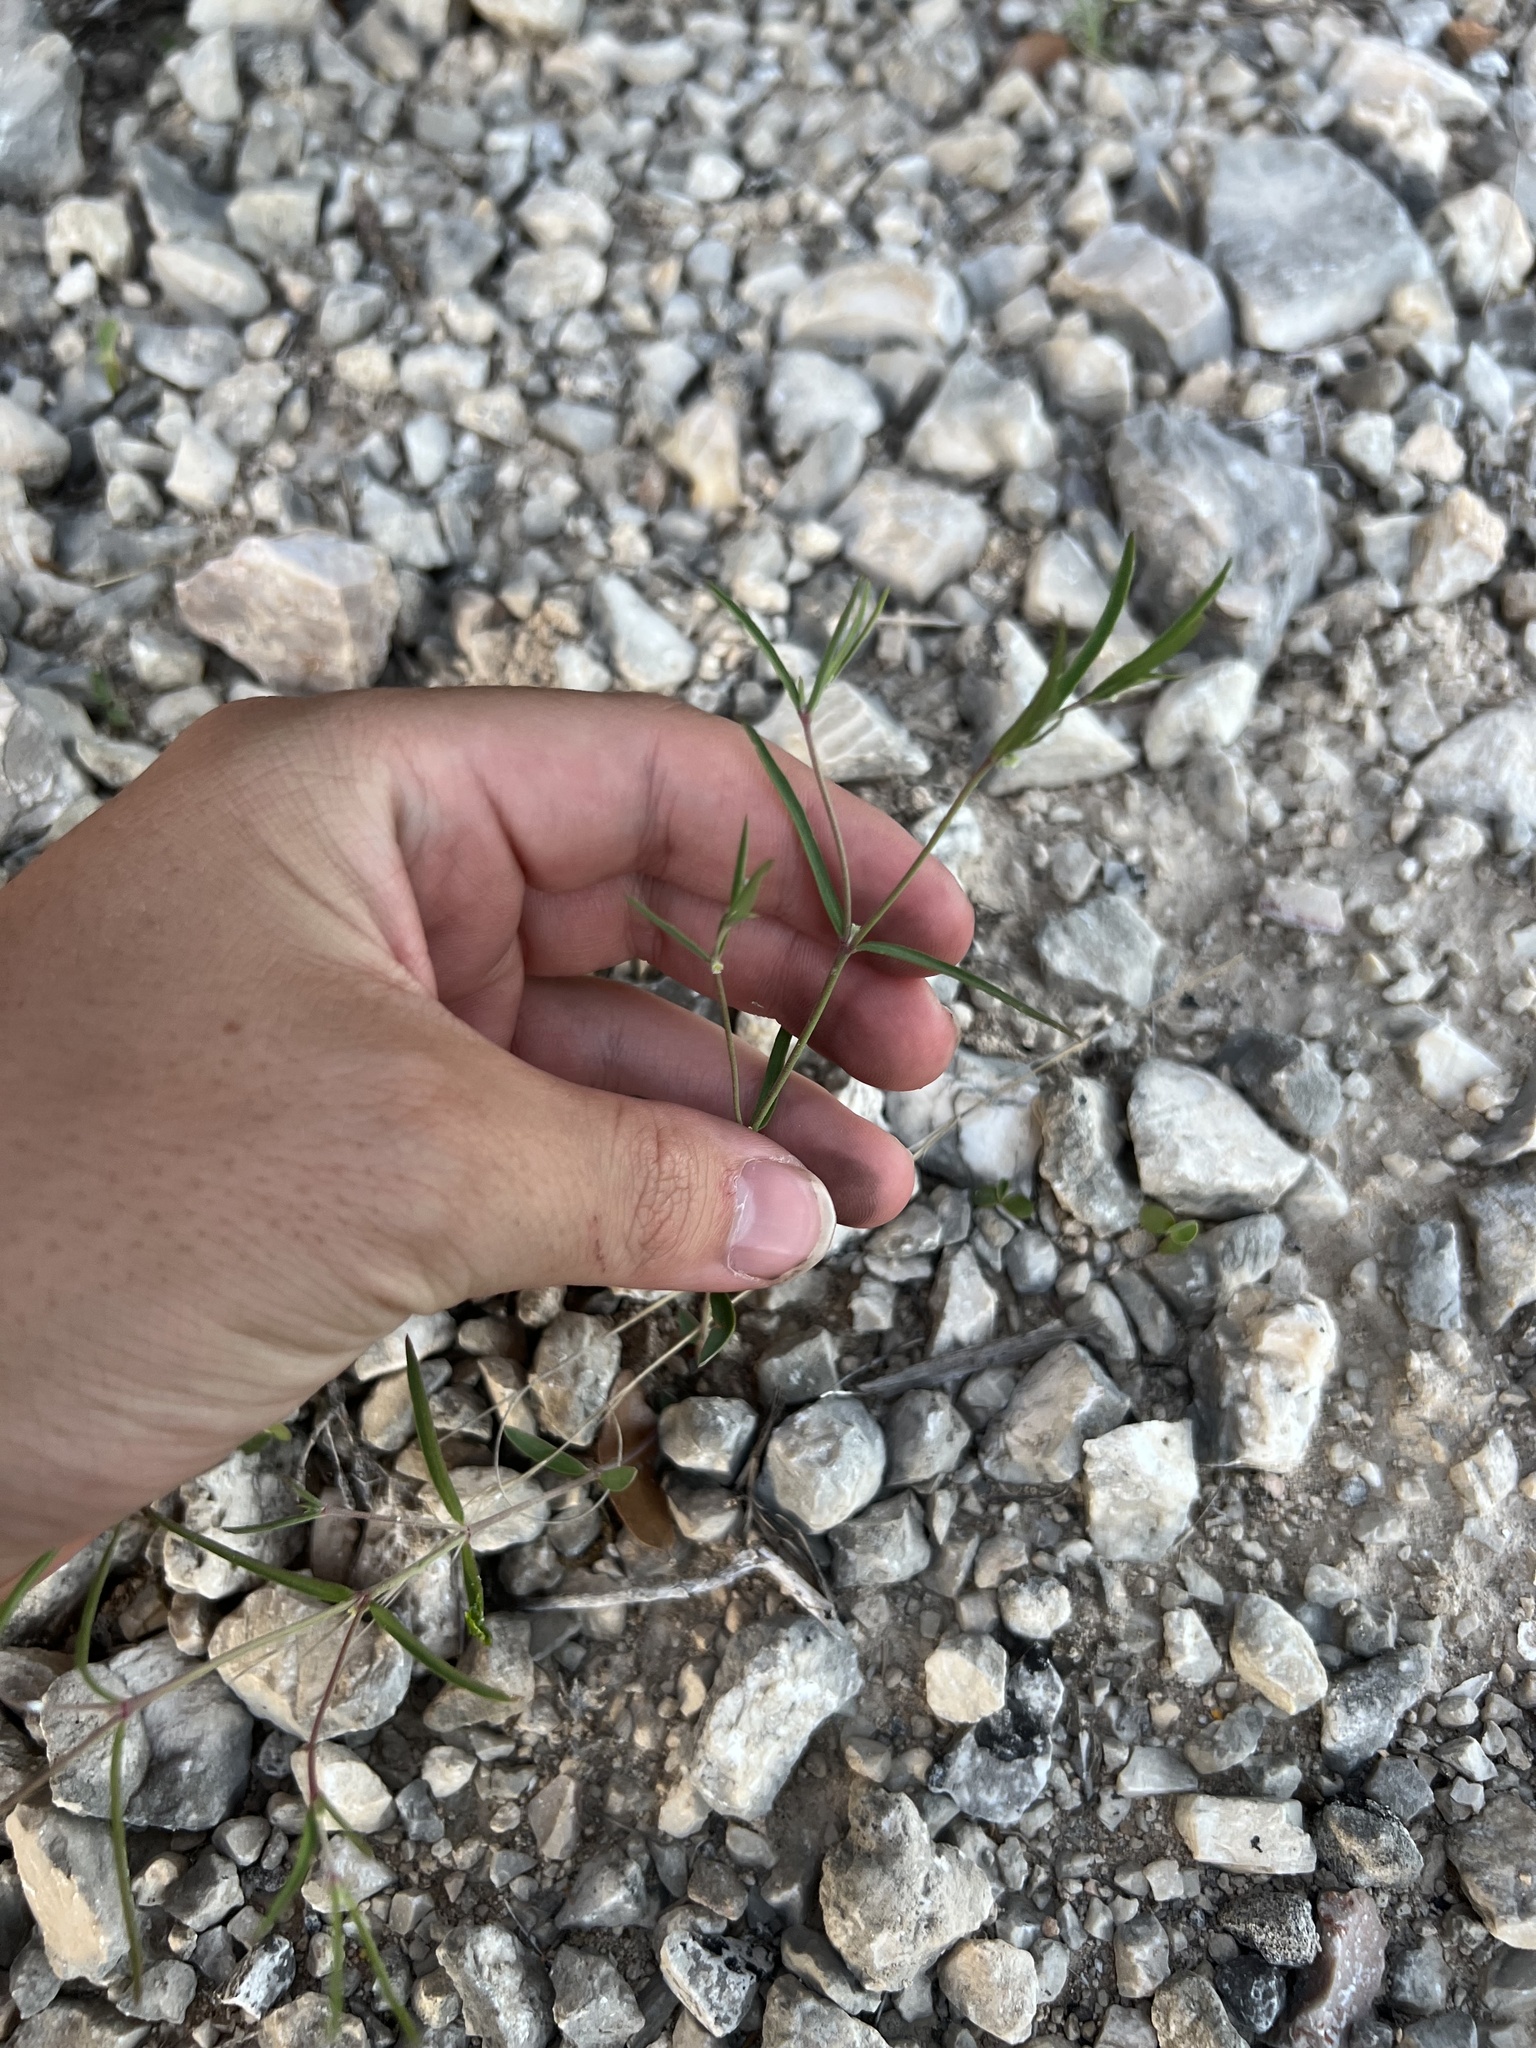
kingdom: Plantae
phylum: Tracheophyta
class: Magnoliopsida
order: Malpighiales
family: Euphorbiaceae
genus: Euphorbia
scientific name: Euphorbia angusta
